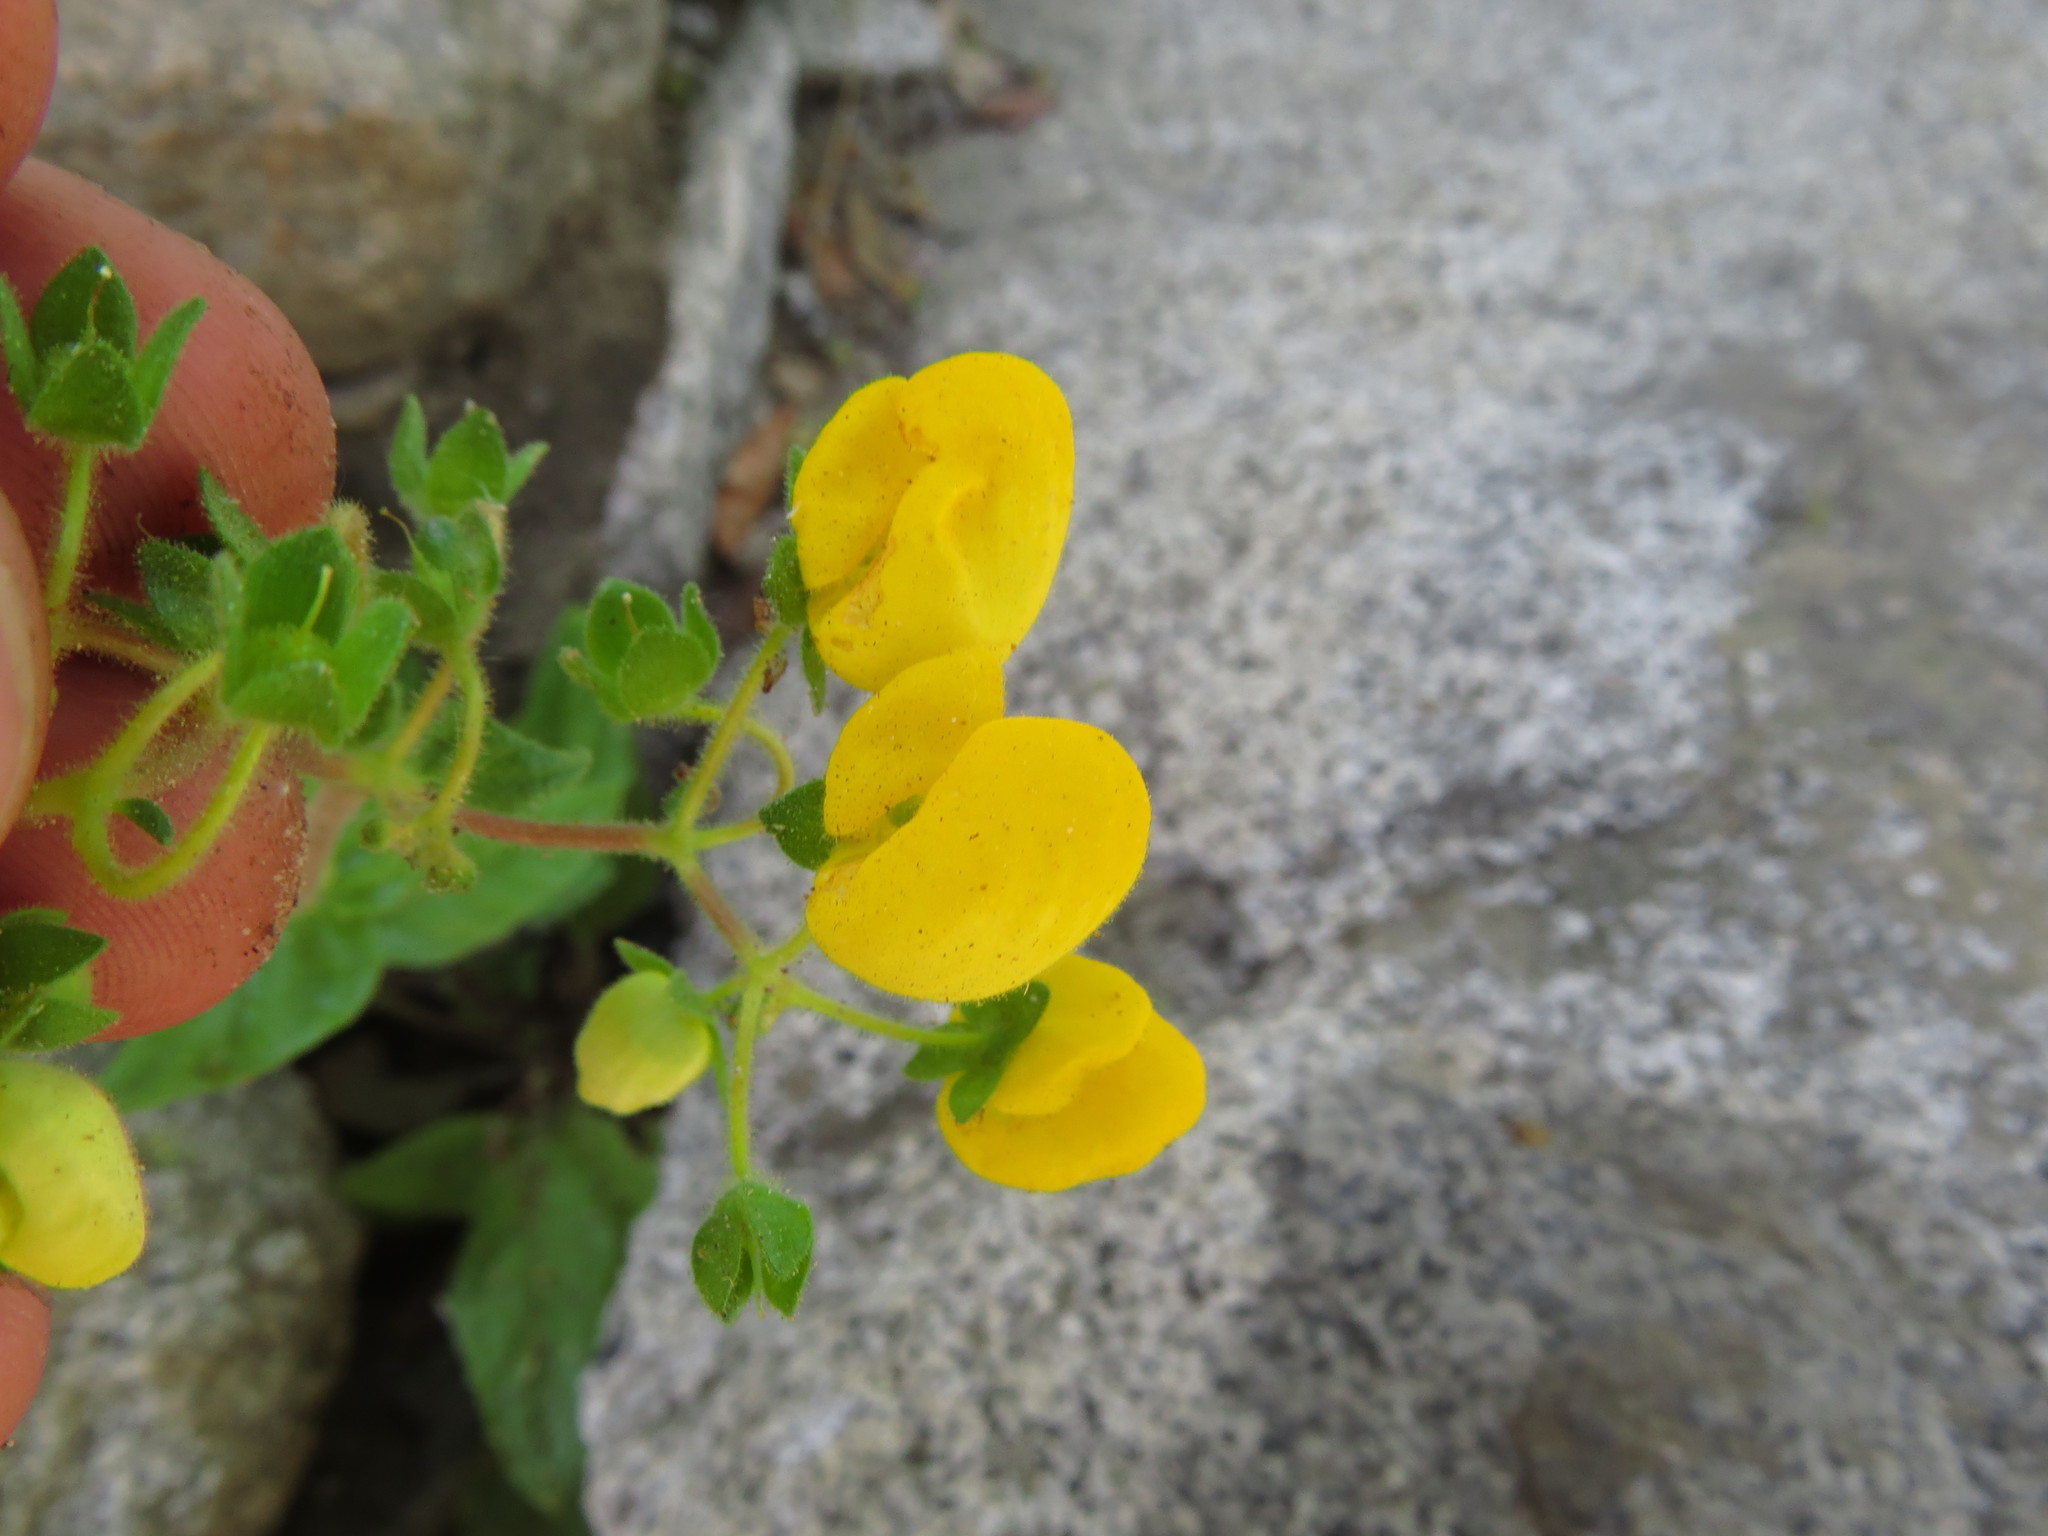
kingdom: Plantae
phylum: Tracheophyta
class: Magnoliopsida
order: Lamiales
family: Calceolariaceae
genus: Calceolaria
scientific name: Calceolaria glandulosa
